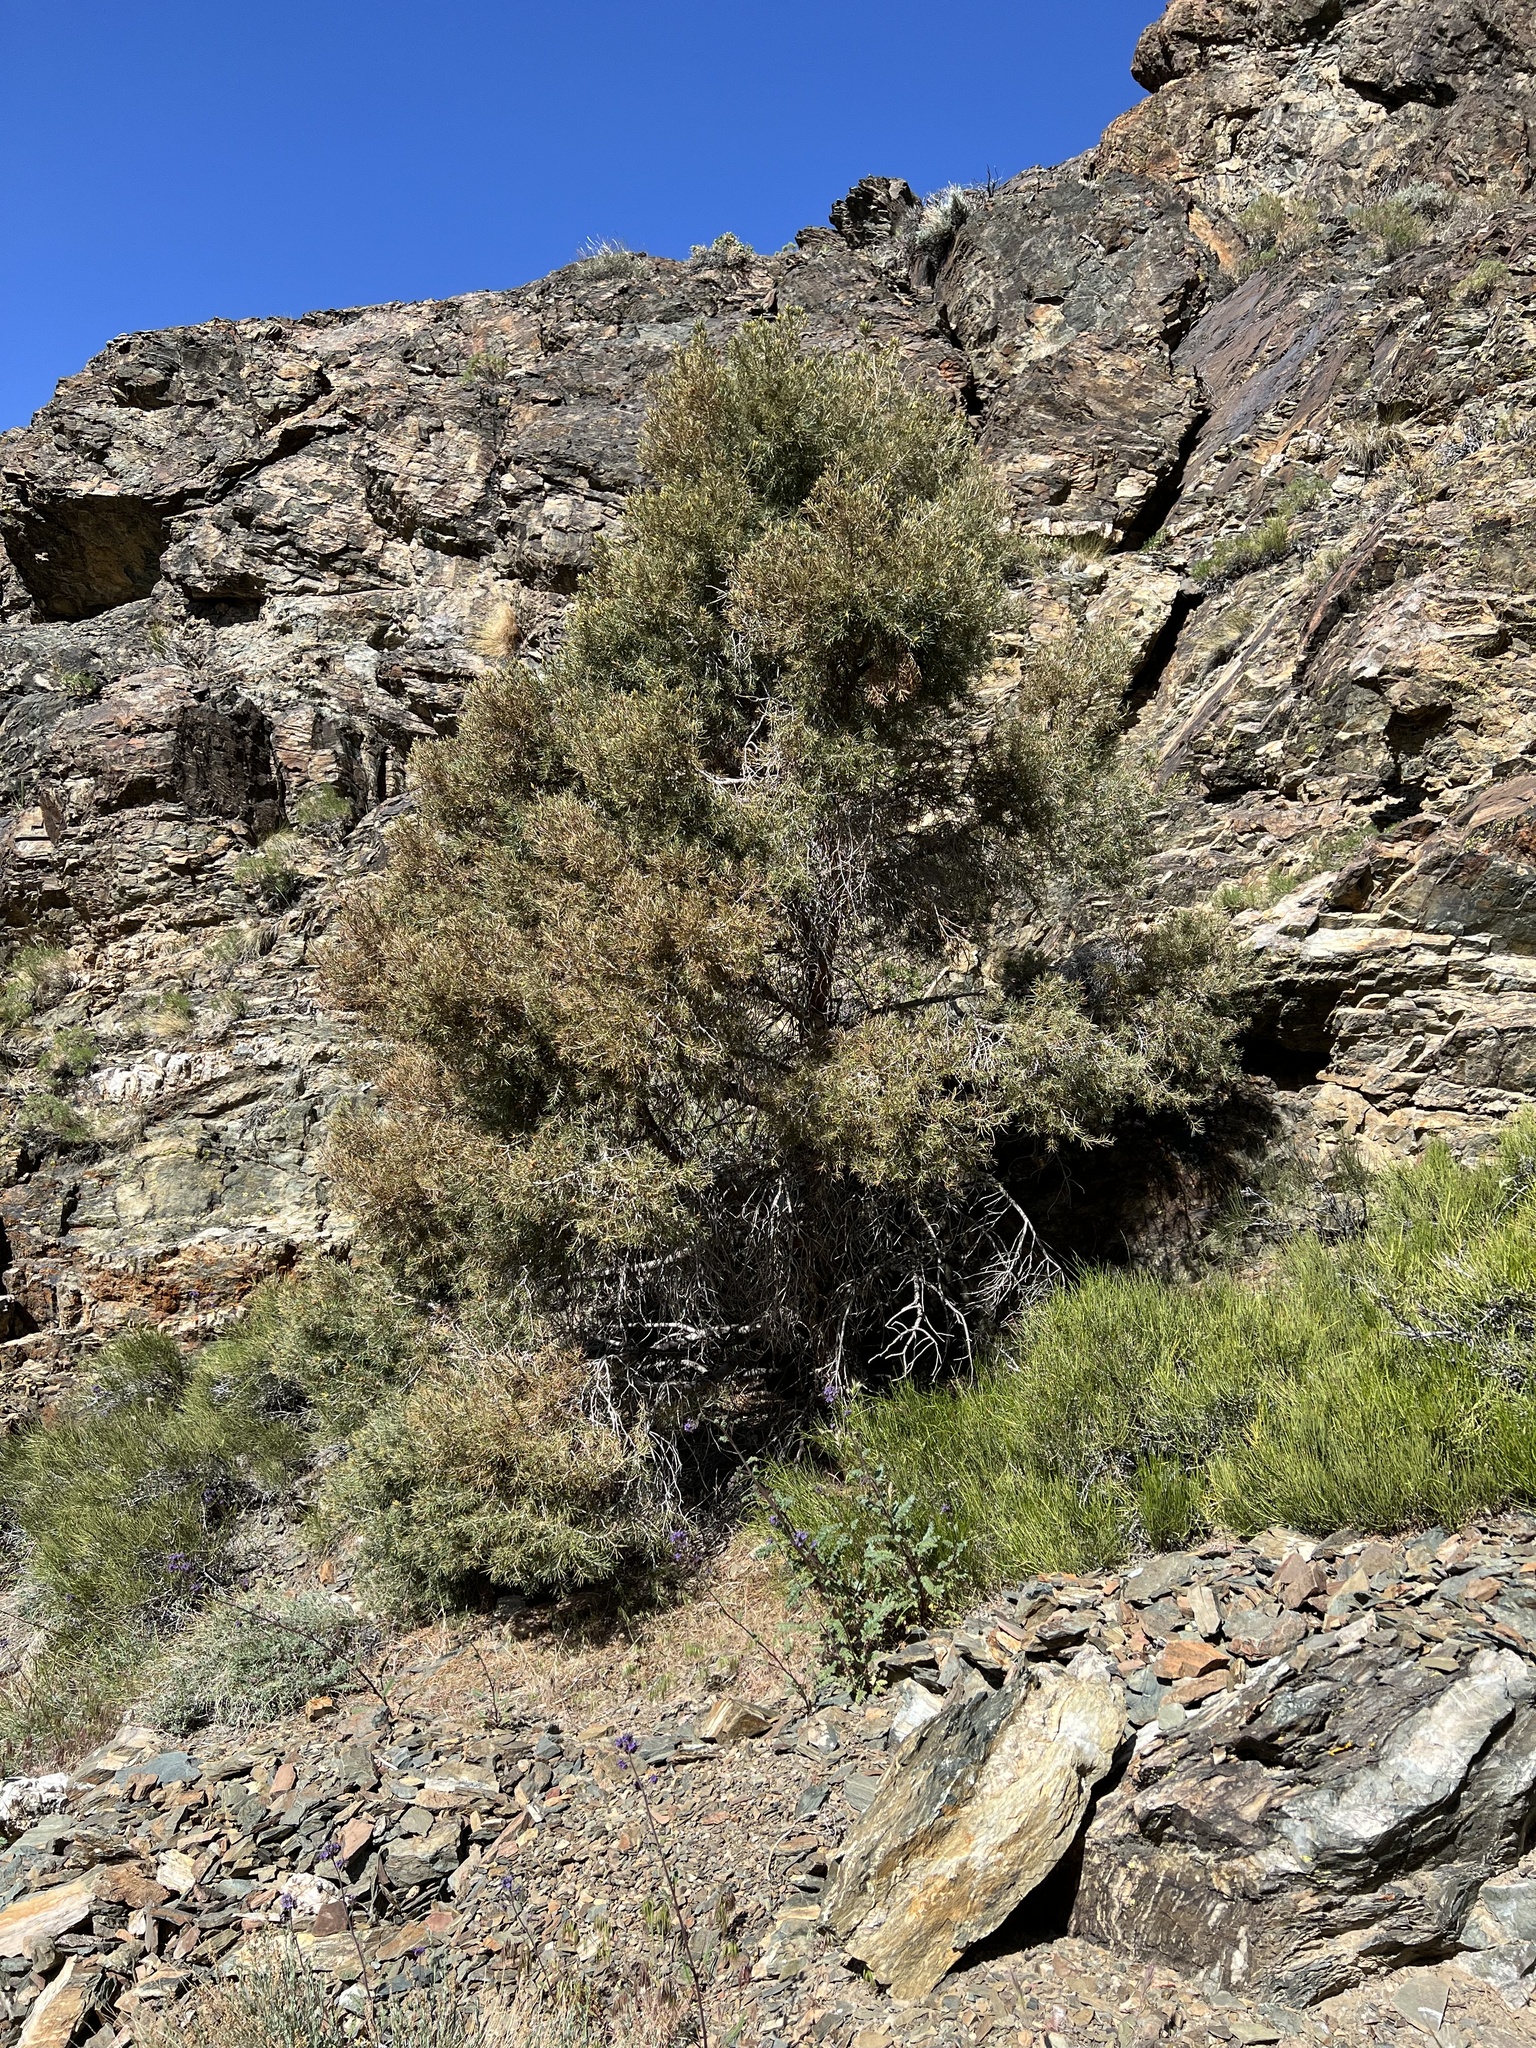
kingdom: Plantae
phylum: Tracheophyta
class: Pinopsida
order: Pinales
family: Pinaceae
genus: Pinus
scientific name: Pinus monophylla
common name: One-leaved nut pine
